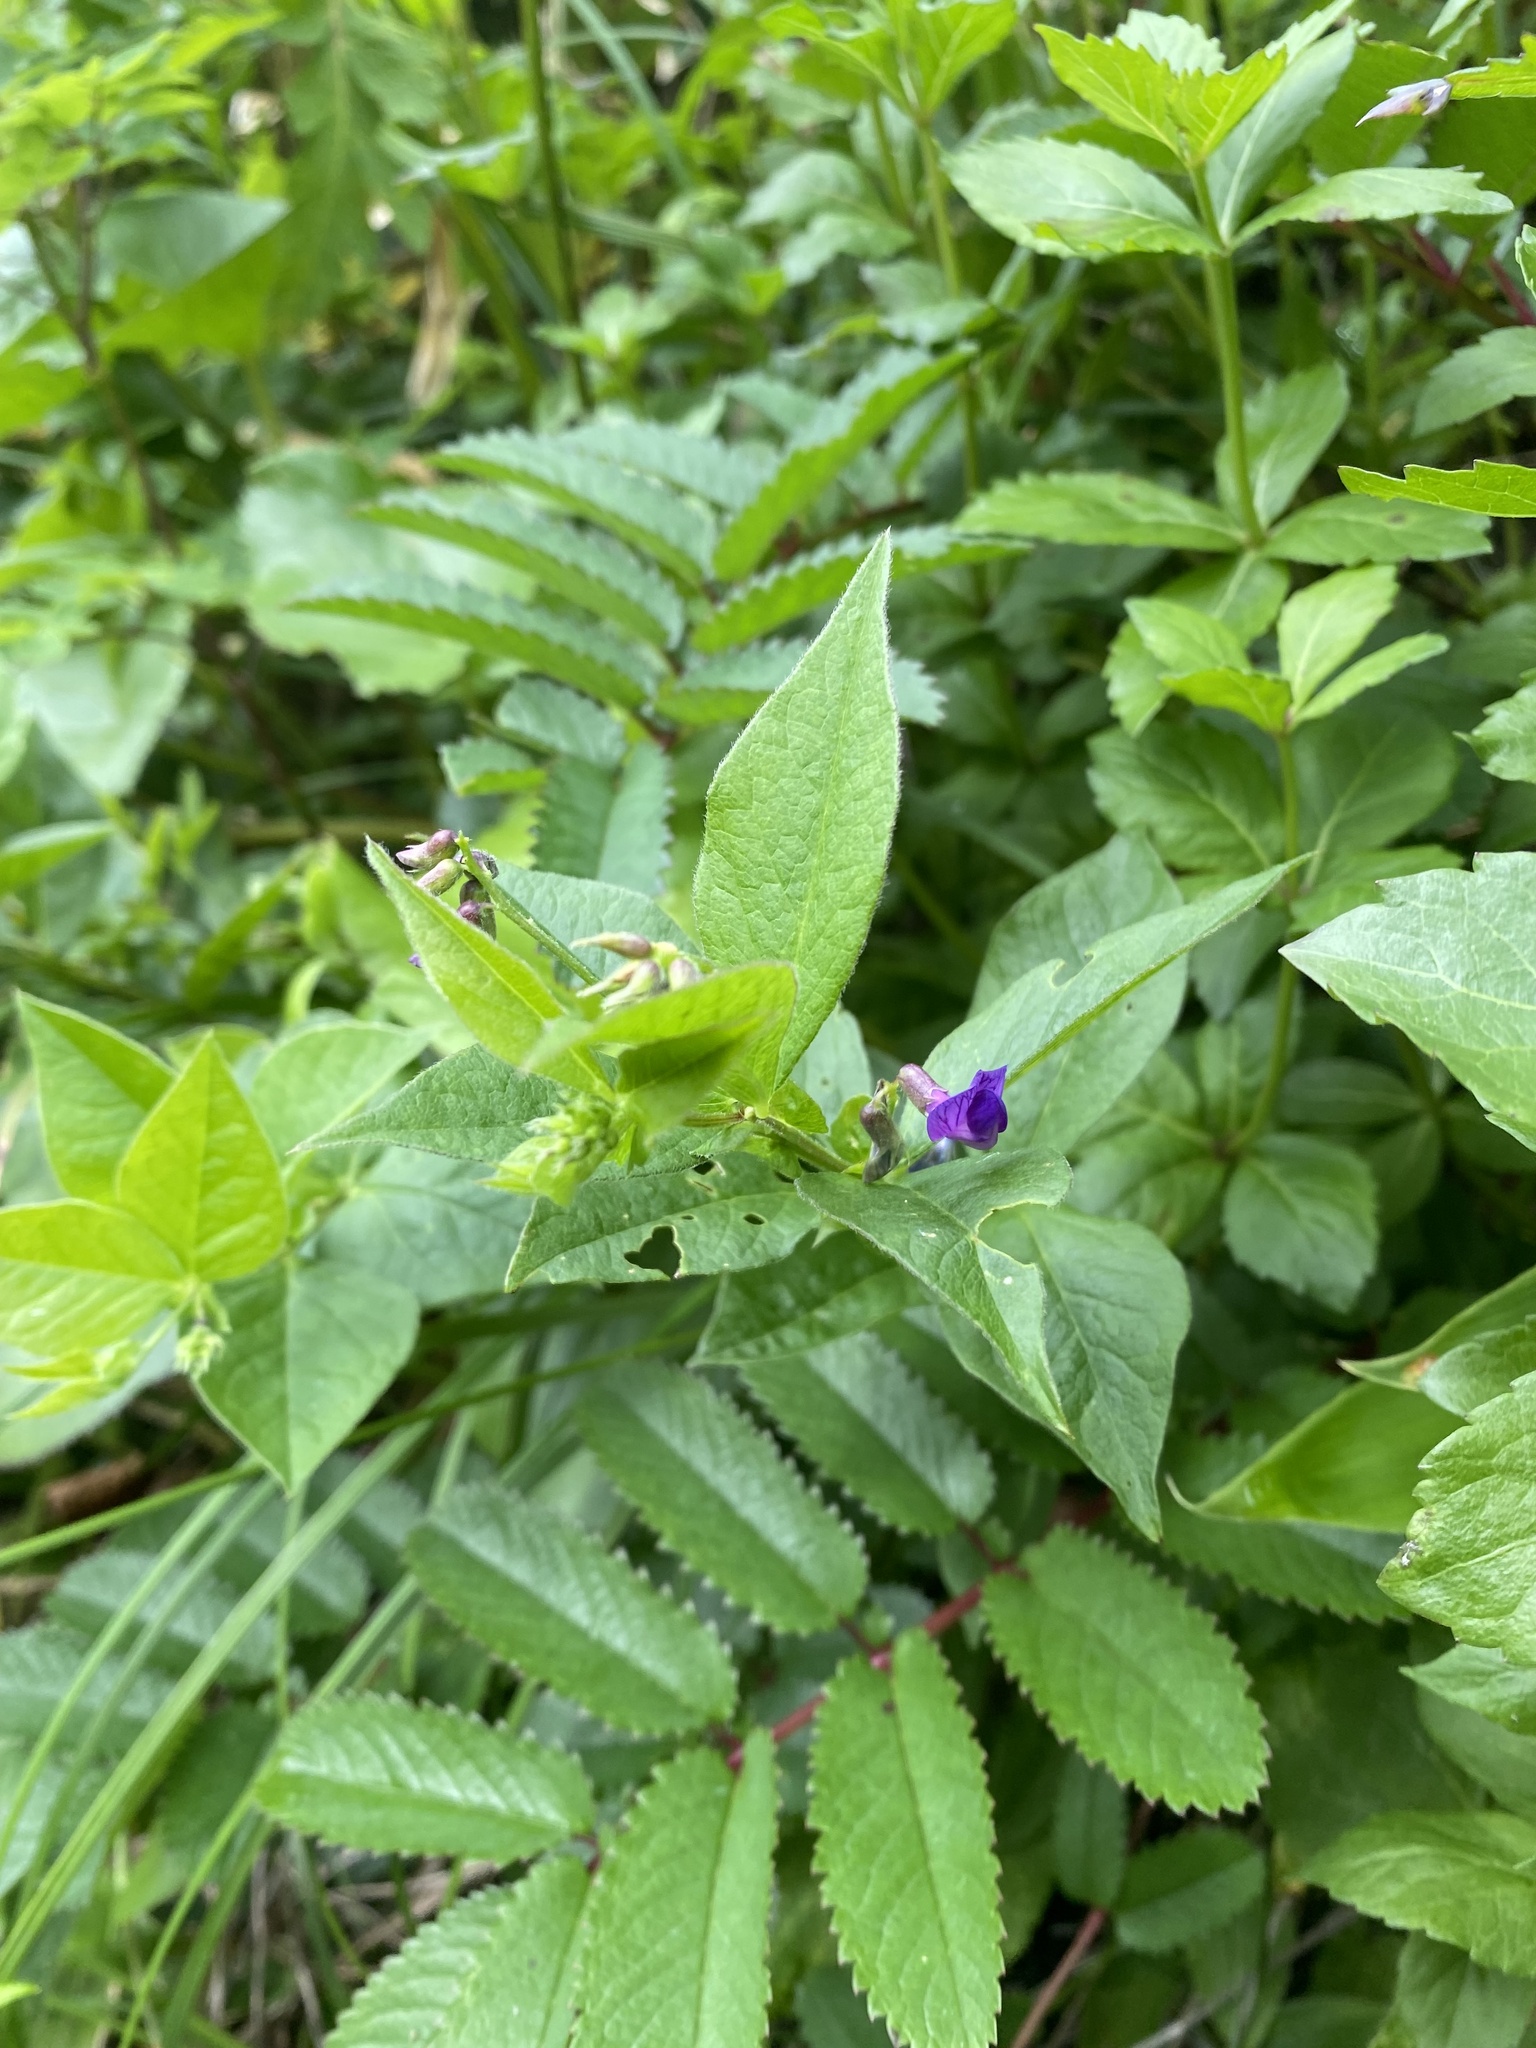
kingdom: Plantae
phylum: Tracheophyta
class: Magnoliopsida
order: Fabales
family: Fabaceae
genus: Vicia
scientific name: Vicia unijuga
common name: Two-leaf vetch
